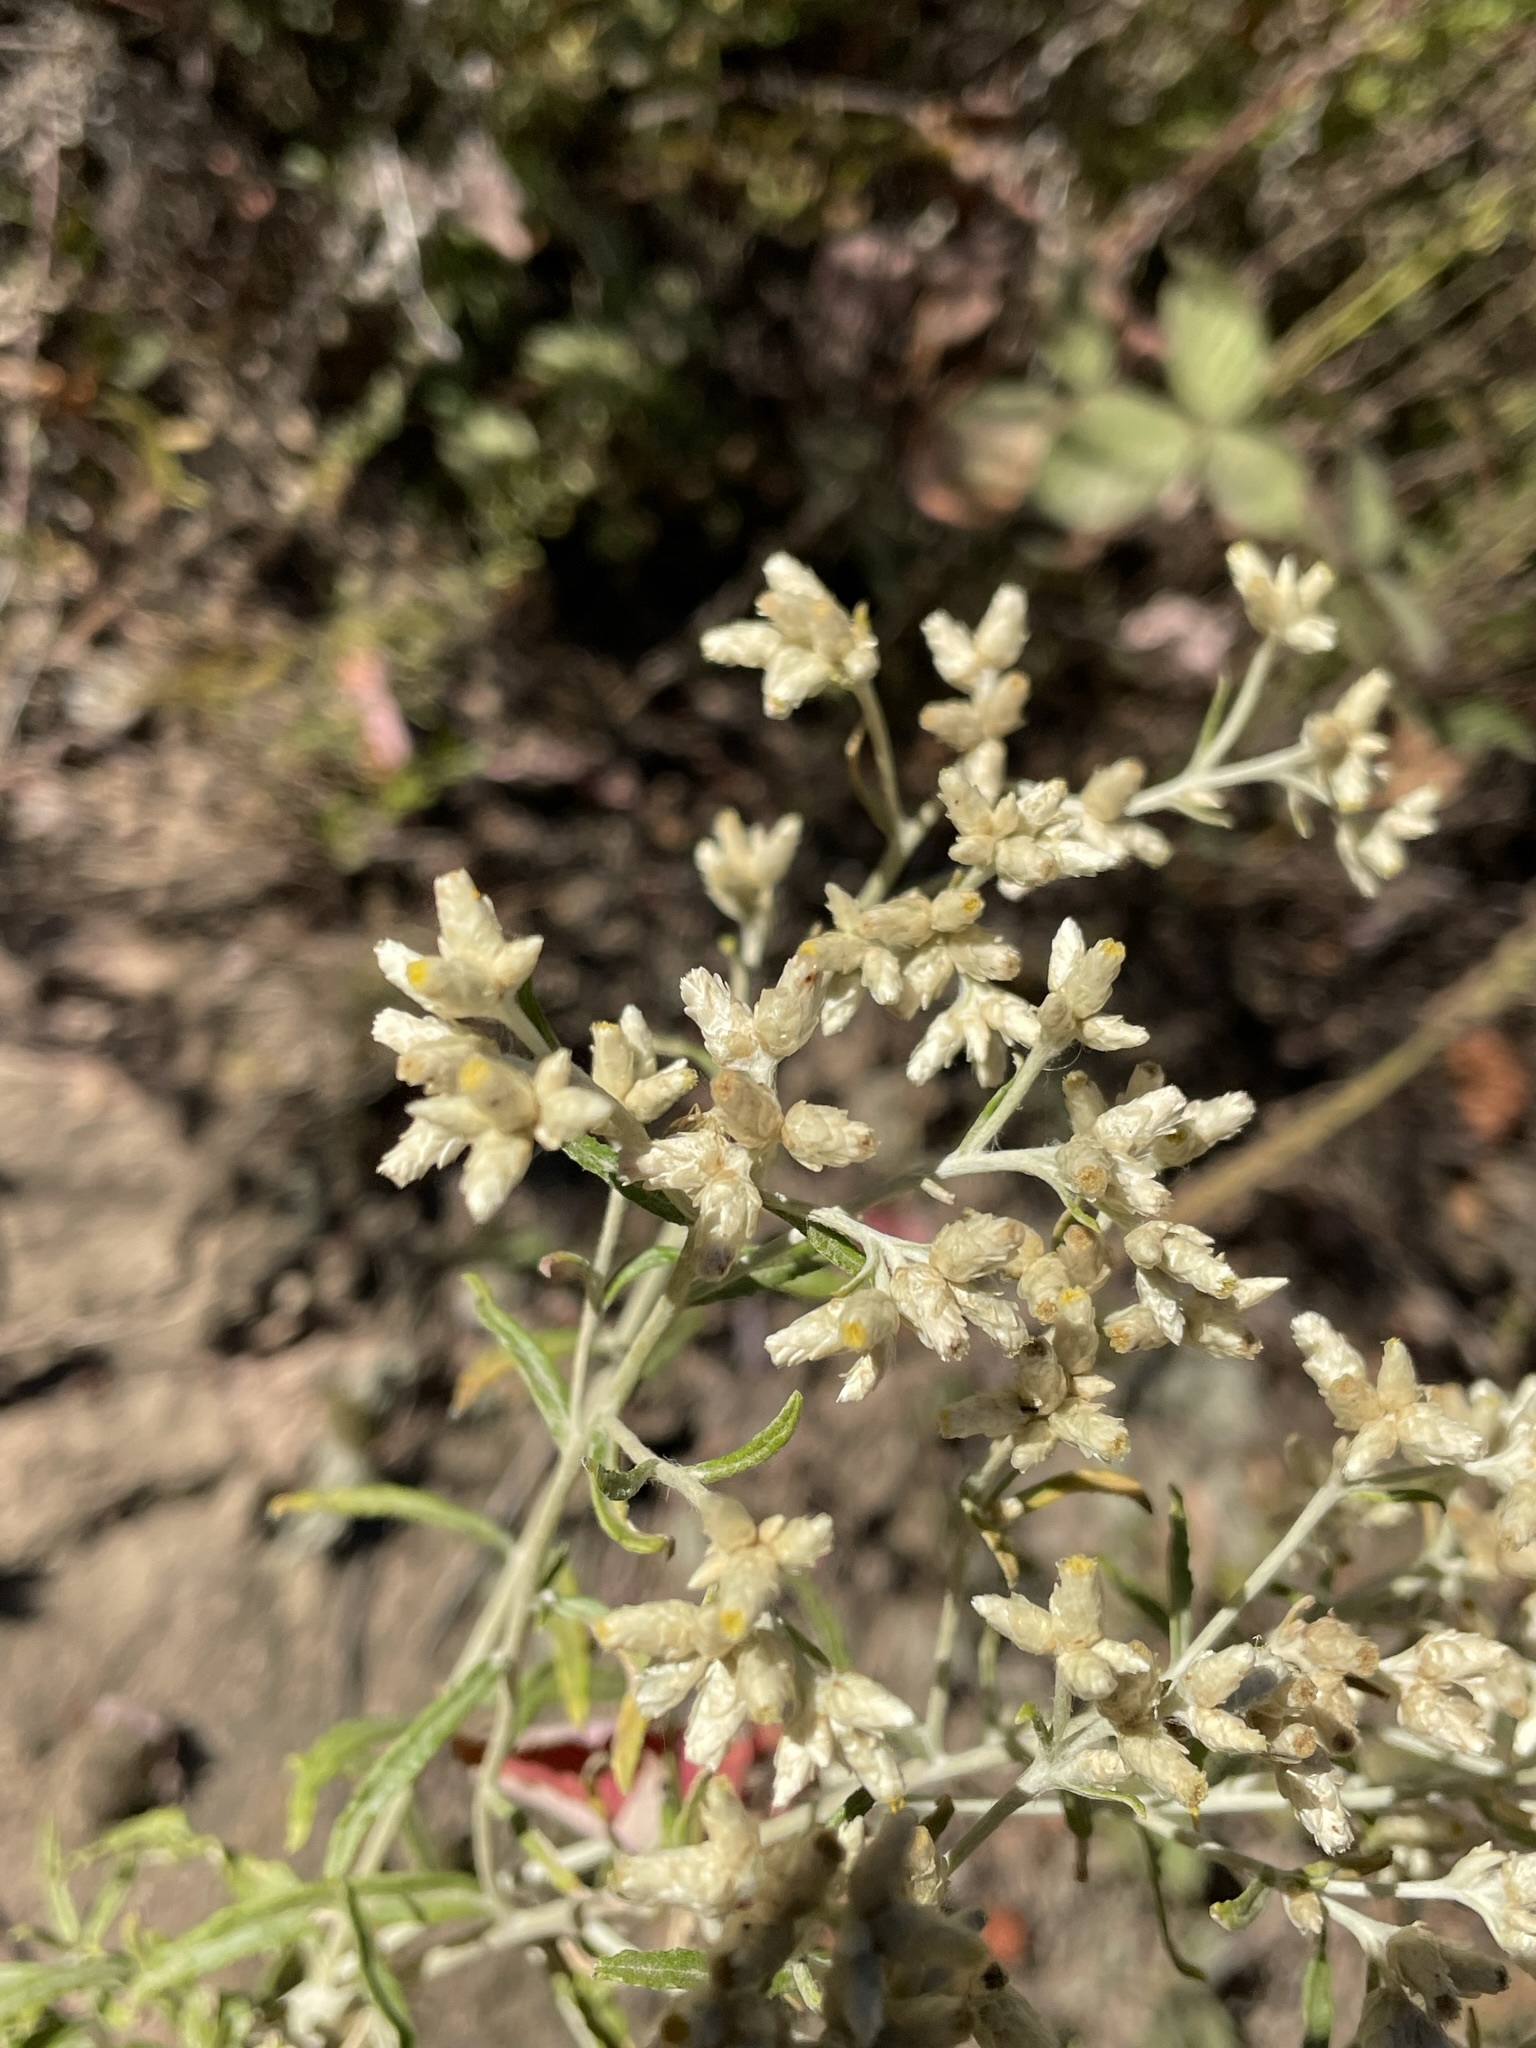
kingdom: Plantae
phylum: Tracheophyta
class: Magnoliopsida
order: Asterales
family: Asteraceae
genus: Pseudognaphalium
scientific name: Pseudognaphalium obtusifolium
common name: Eastern rabbit-tobacco
